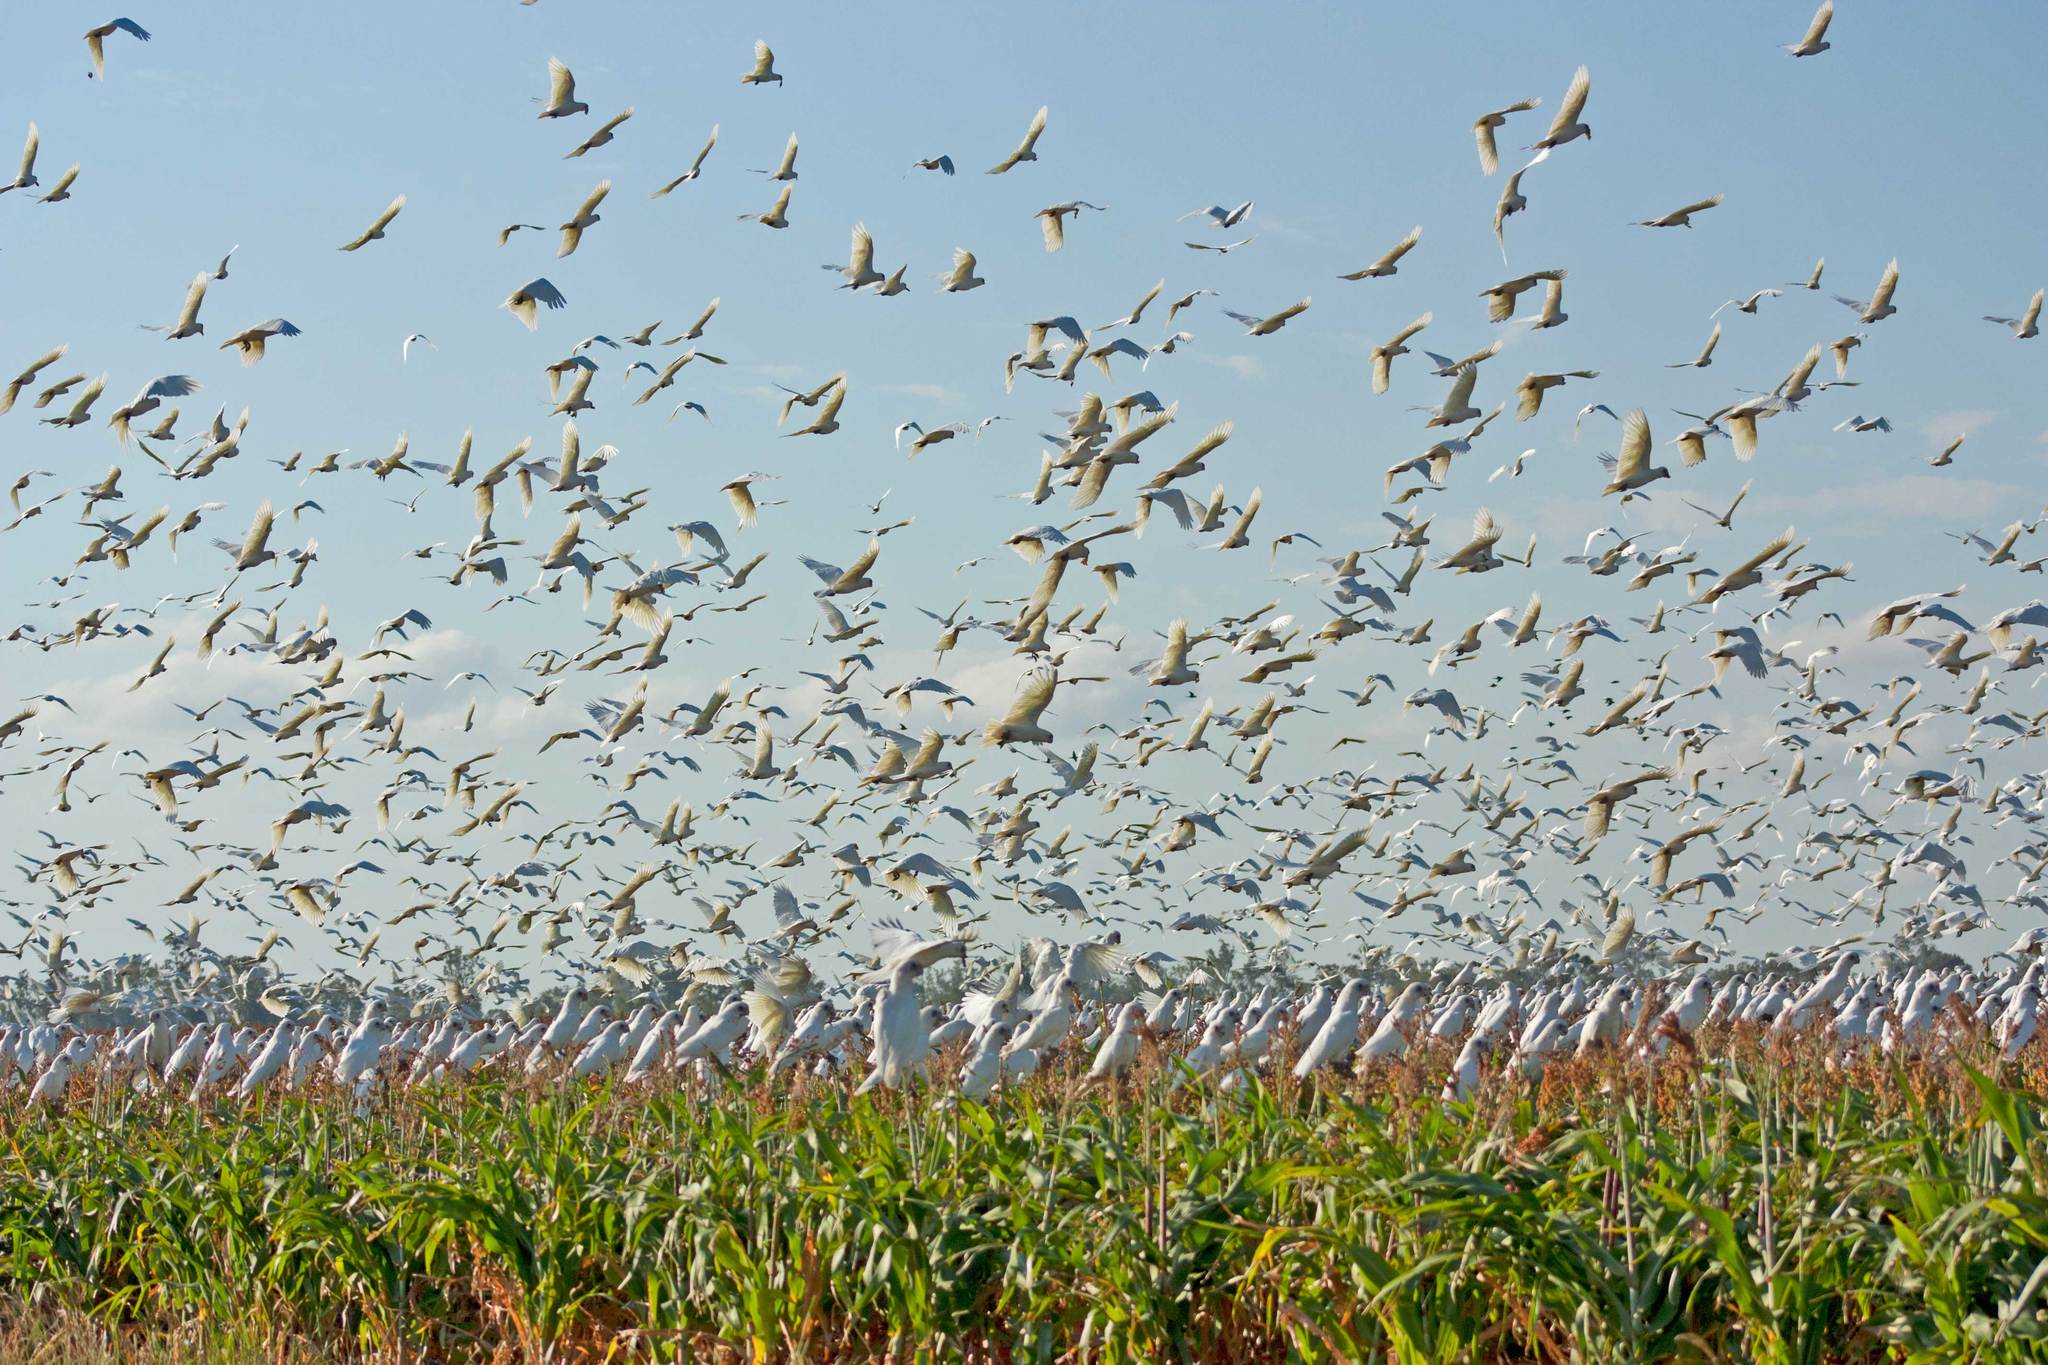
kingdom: Animalia
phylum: Chordata
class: Aves
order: Psittaciformes
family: Psittacidae
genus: Cacatua
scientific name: Cacatua sanguinea
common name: Little corella
